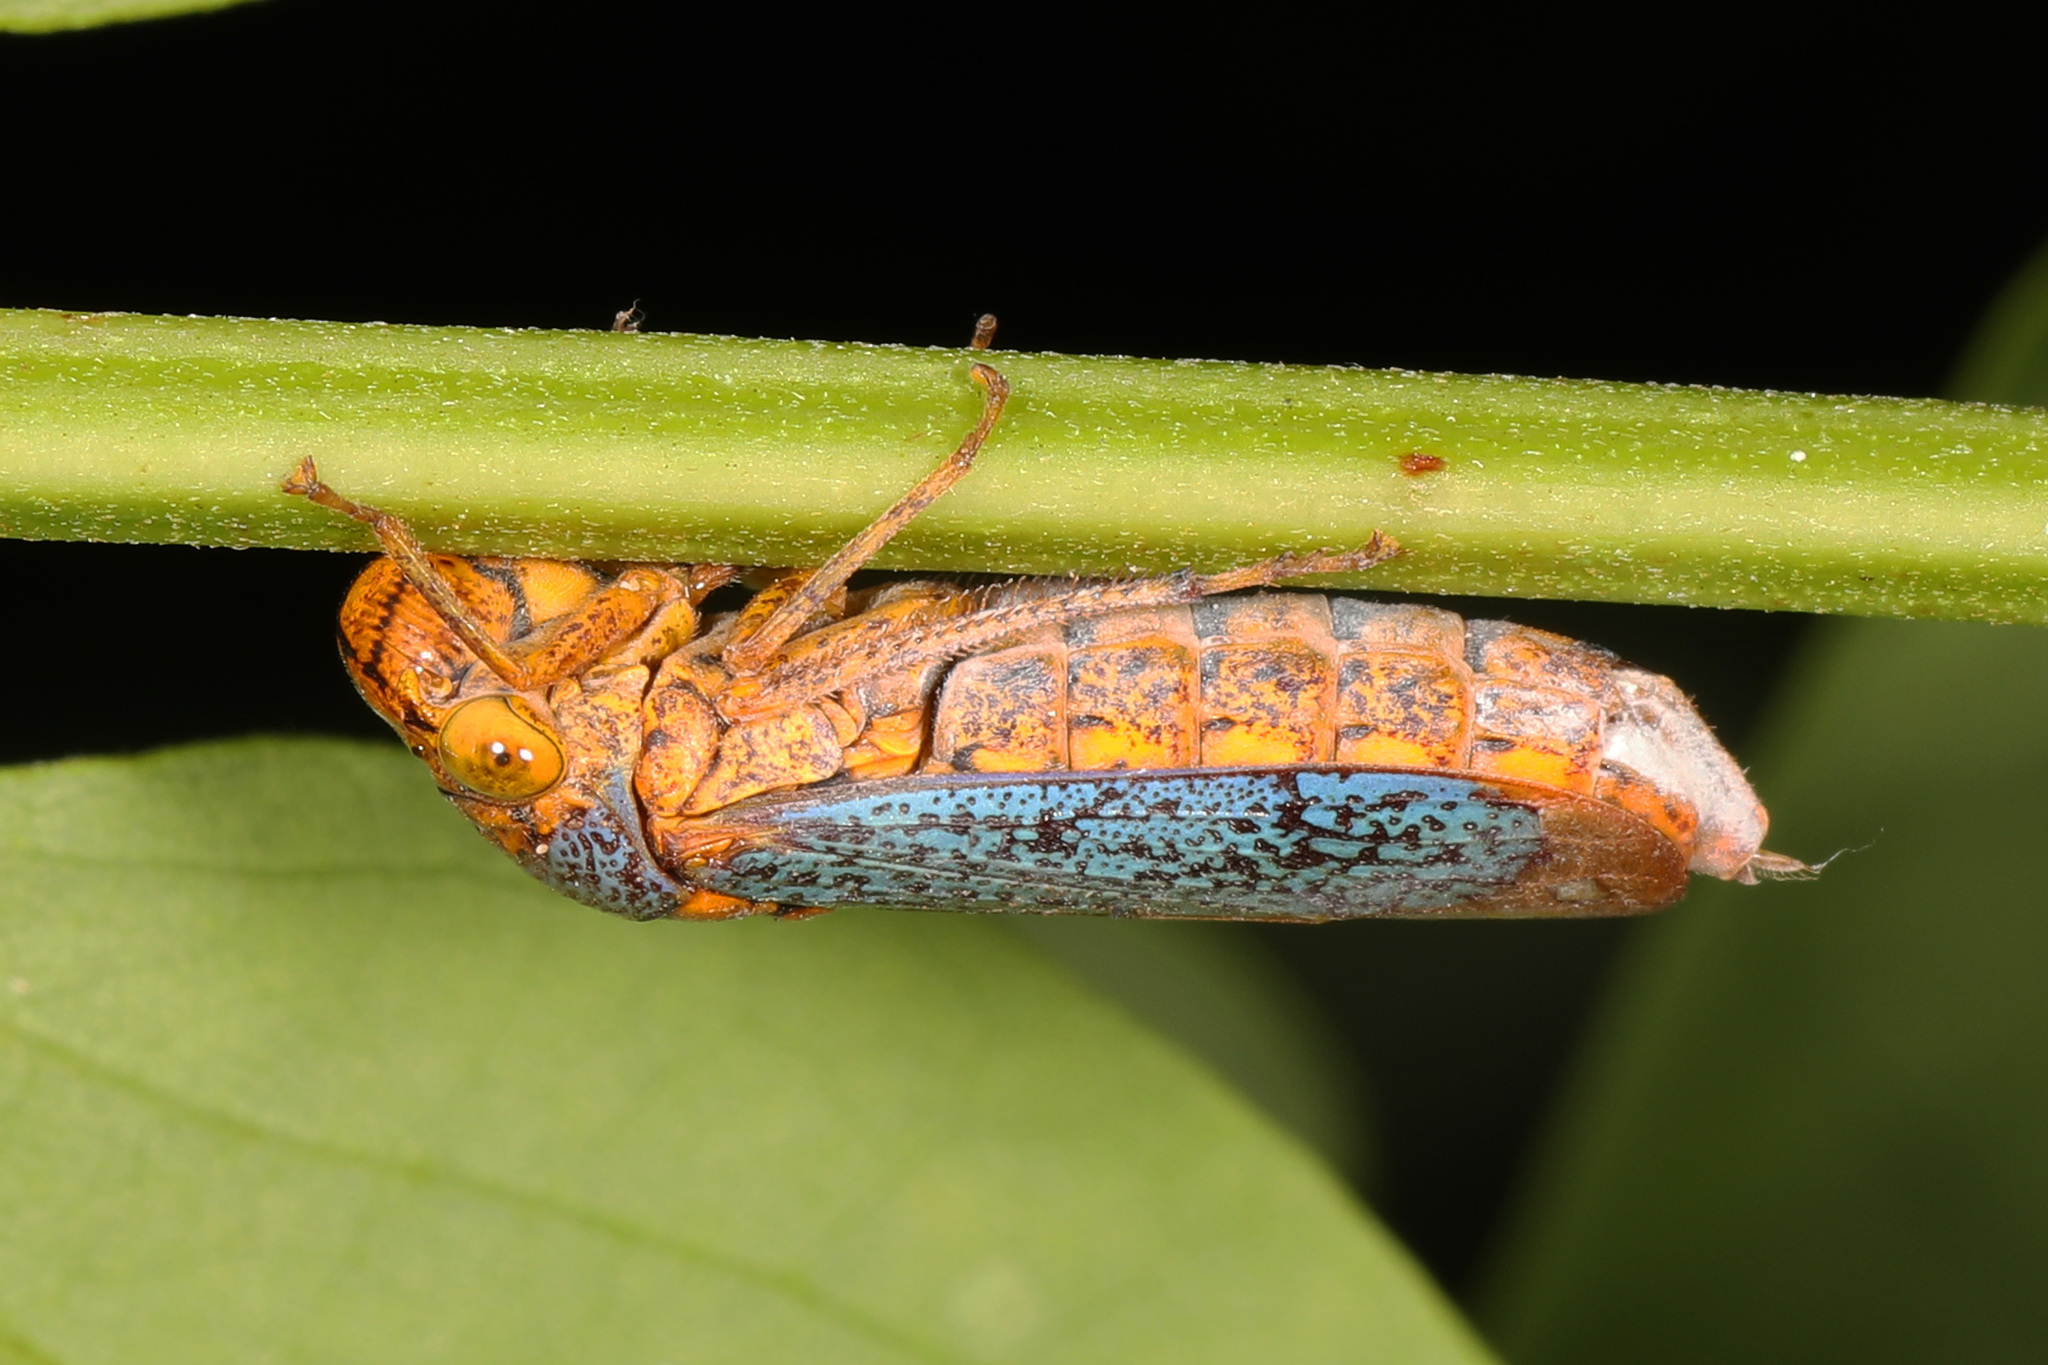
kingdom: Animalia
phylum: Arthropoda
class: Insecta
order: Hemiptera
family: Cicadellidae
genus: Oncometopia
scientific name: Oncometopia orbona
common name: Broad-headed sharpshooter
